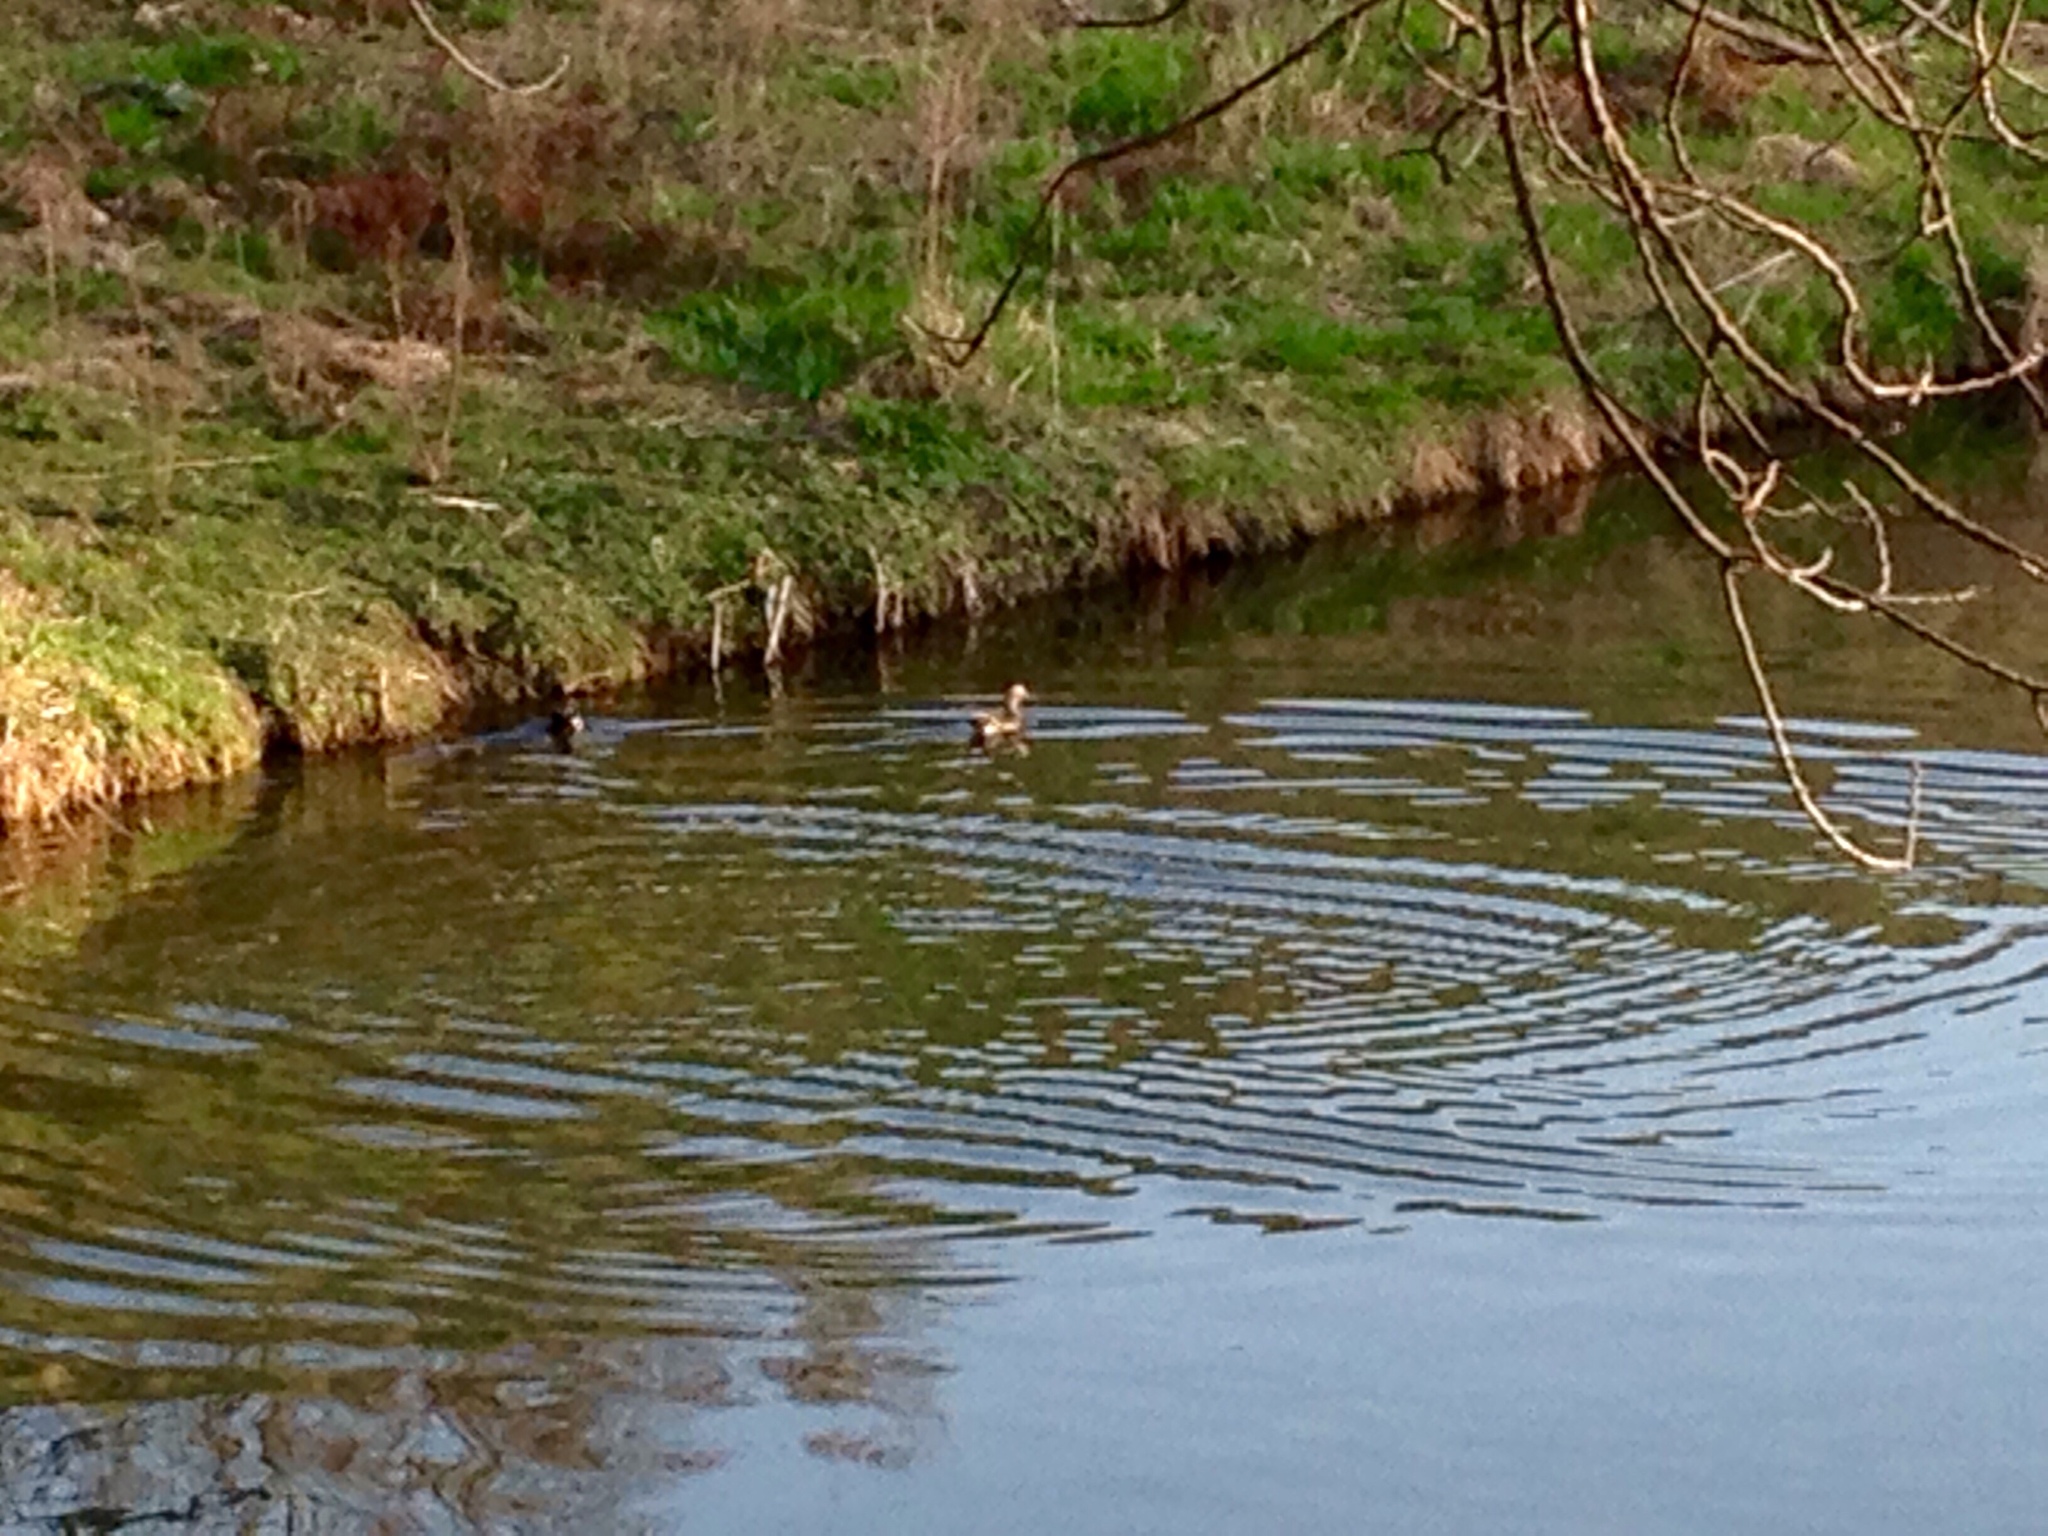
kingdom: Animalia
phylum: Chordata
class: Aves
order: Anseriformes
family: Anatidae
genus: Aix
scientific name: Aix sponsa
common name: Wood duck
